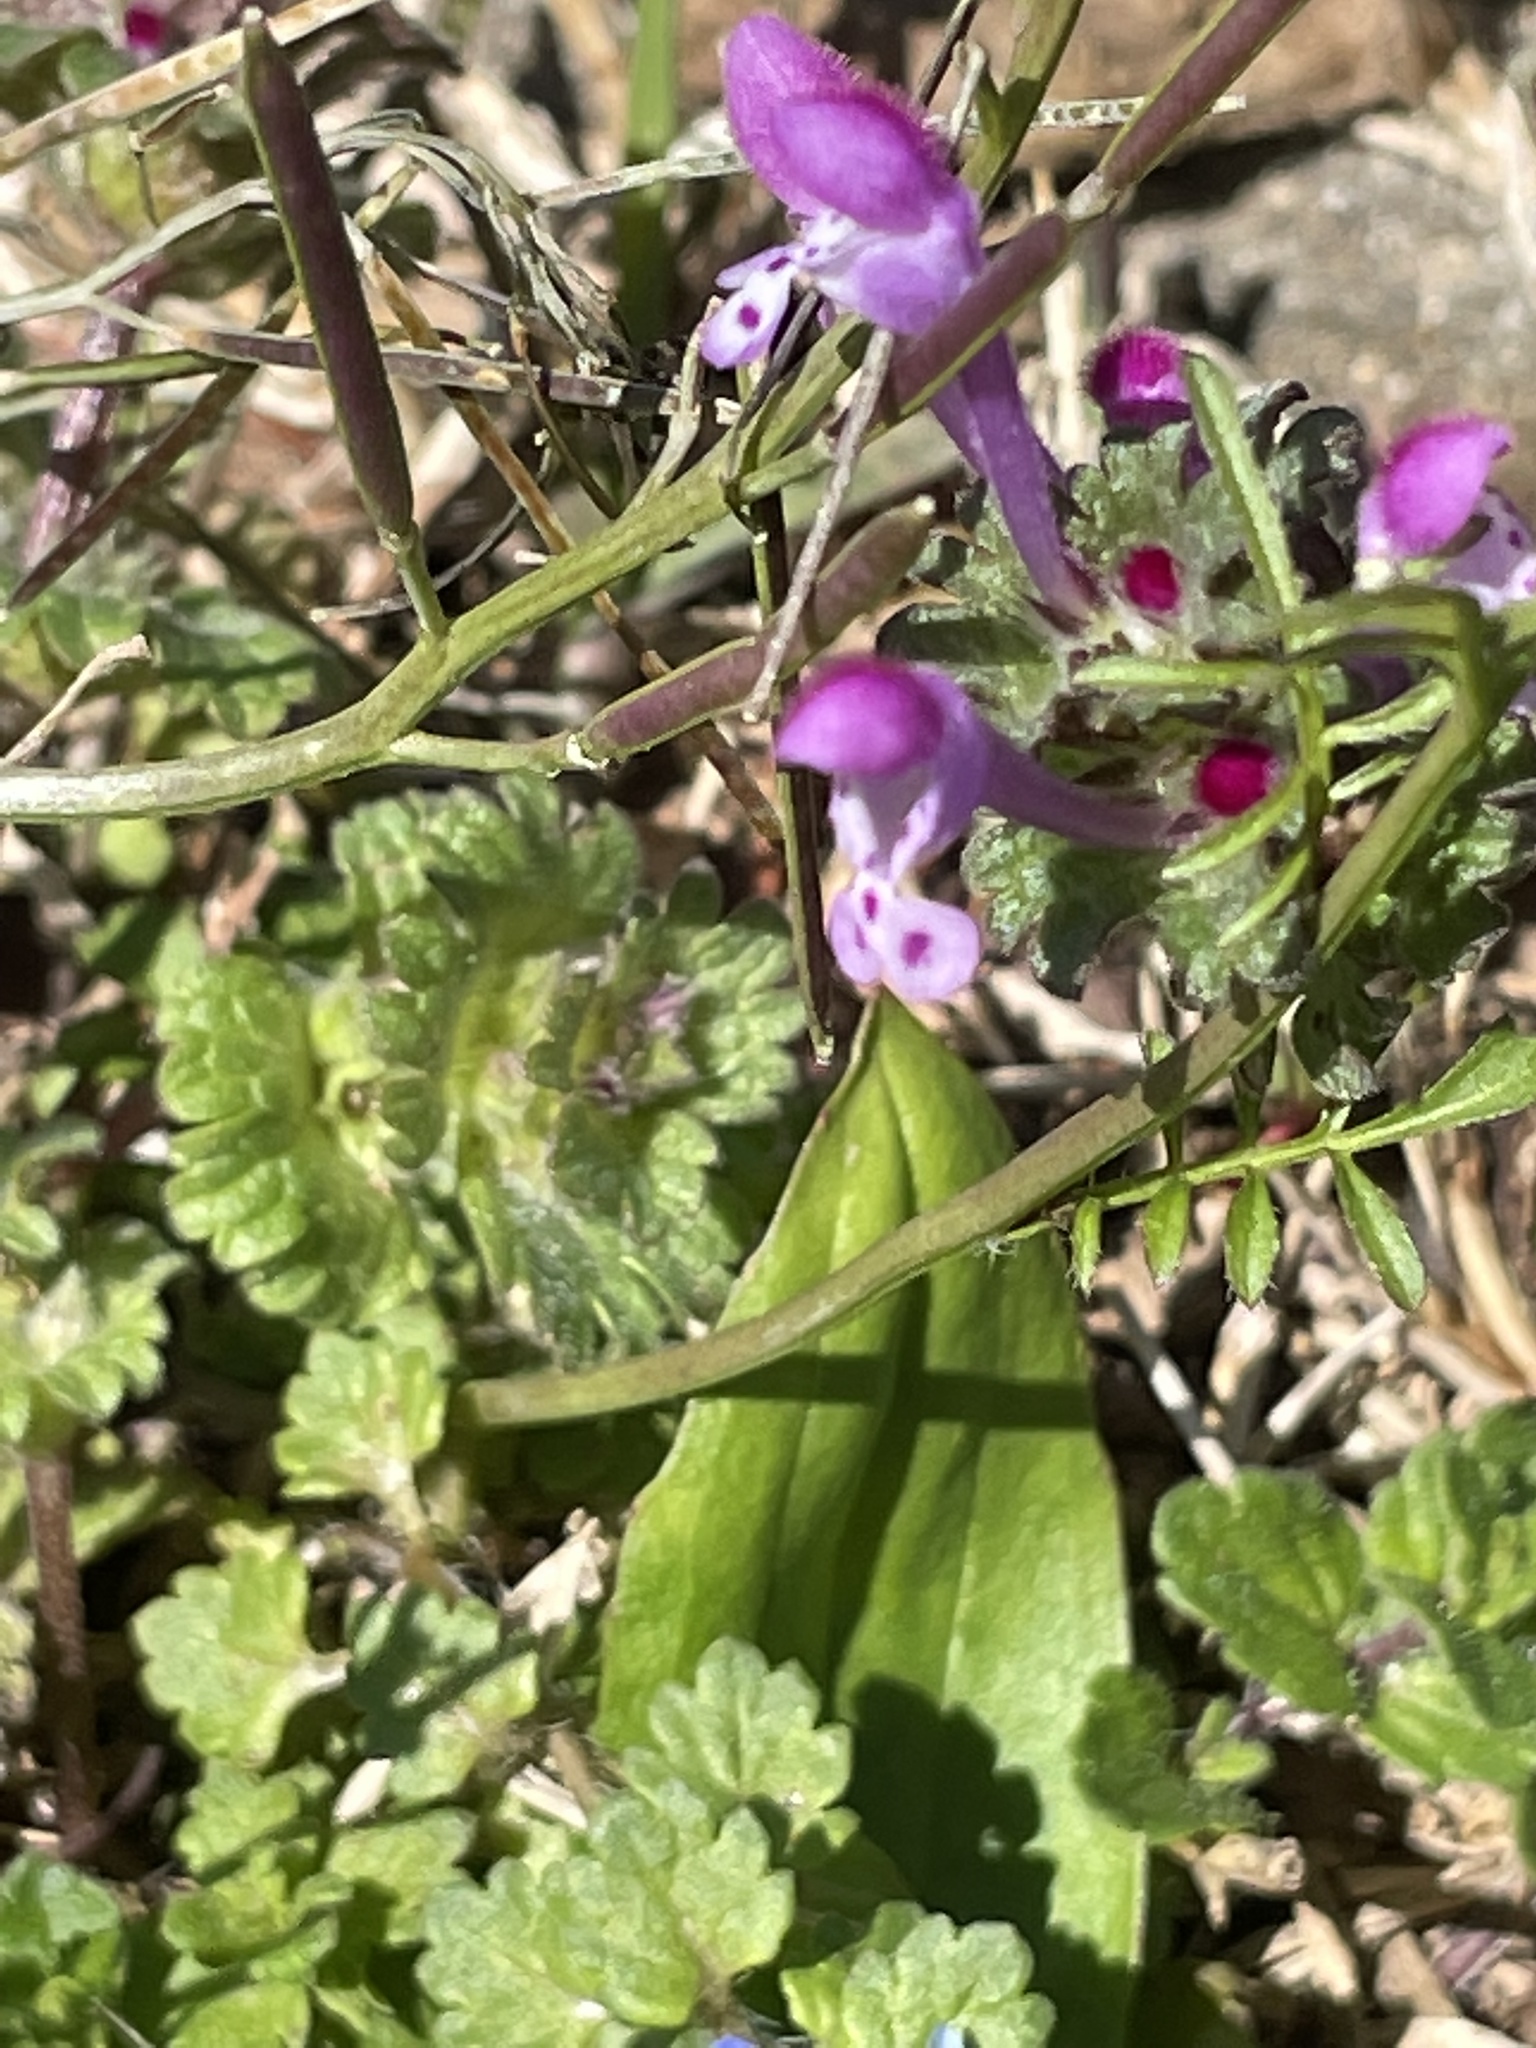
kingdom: Plantae
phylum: Tracheophyta
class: Magnoliopsida
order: Lamiales
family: Lamiaceae
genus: Lamium
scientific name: Lamium amplexicaule
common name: Henbit dead-nettle
